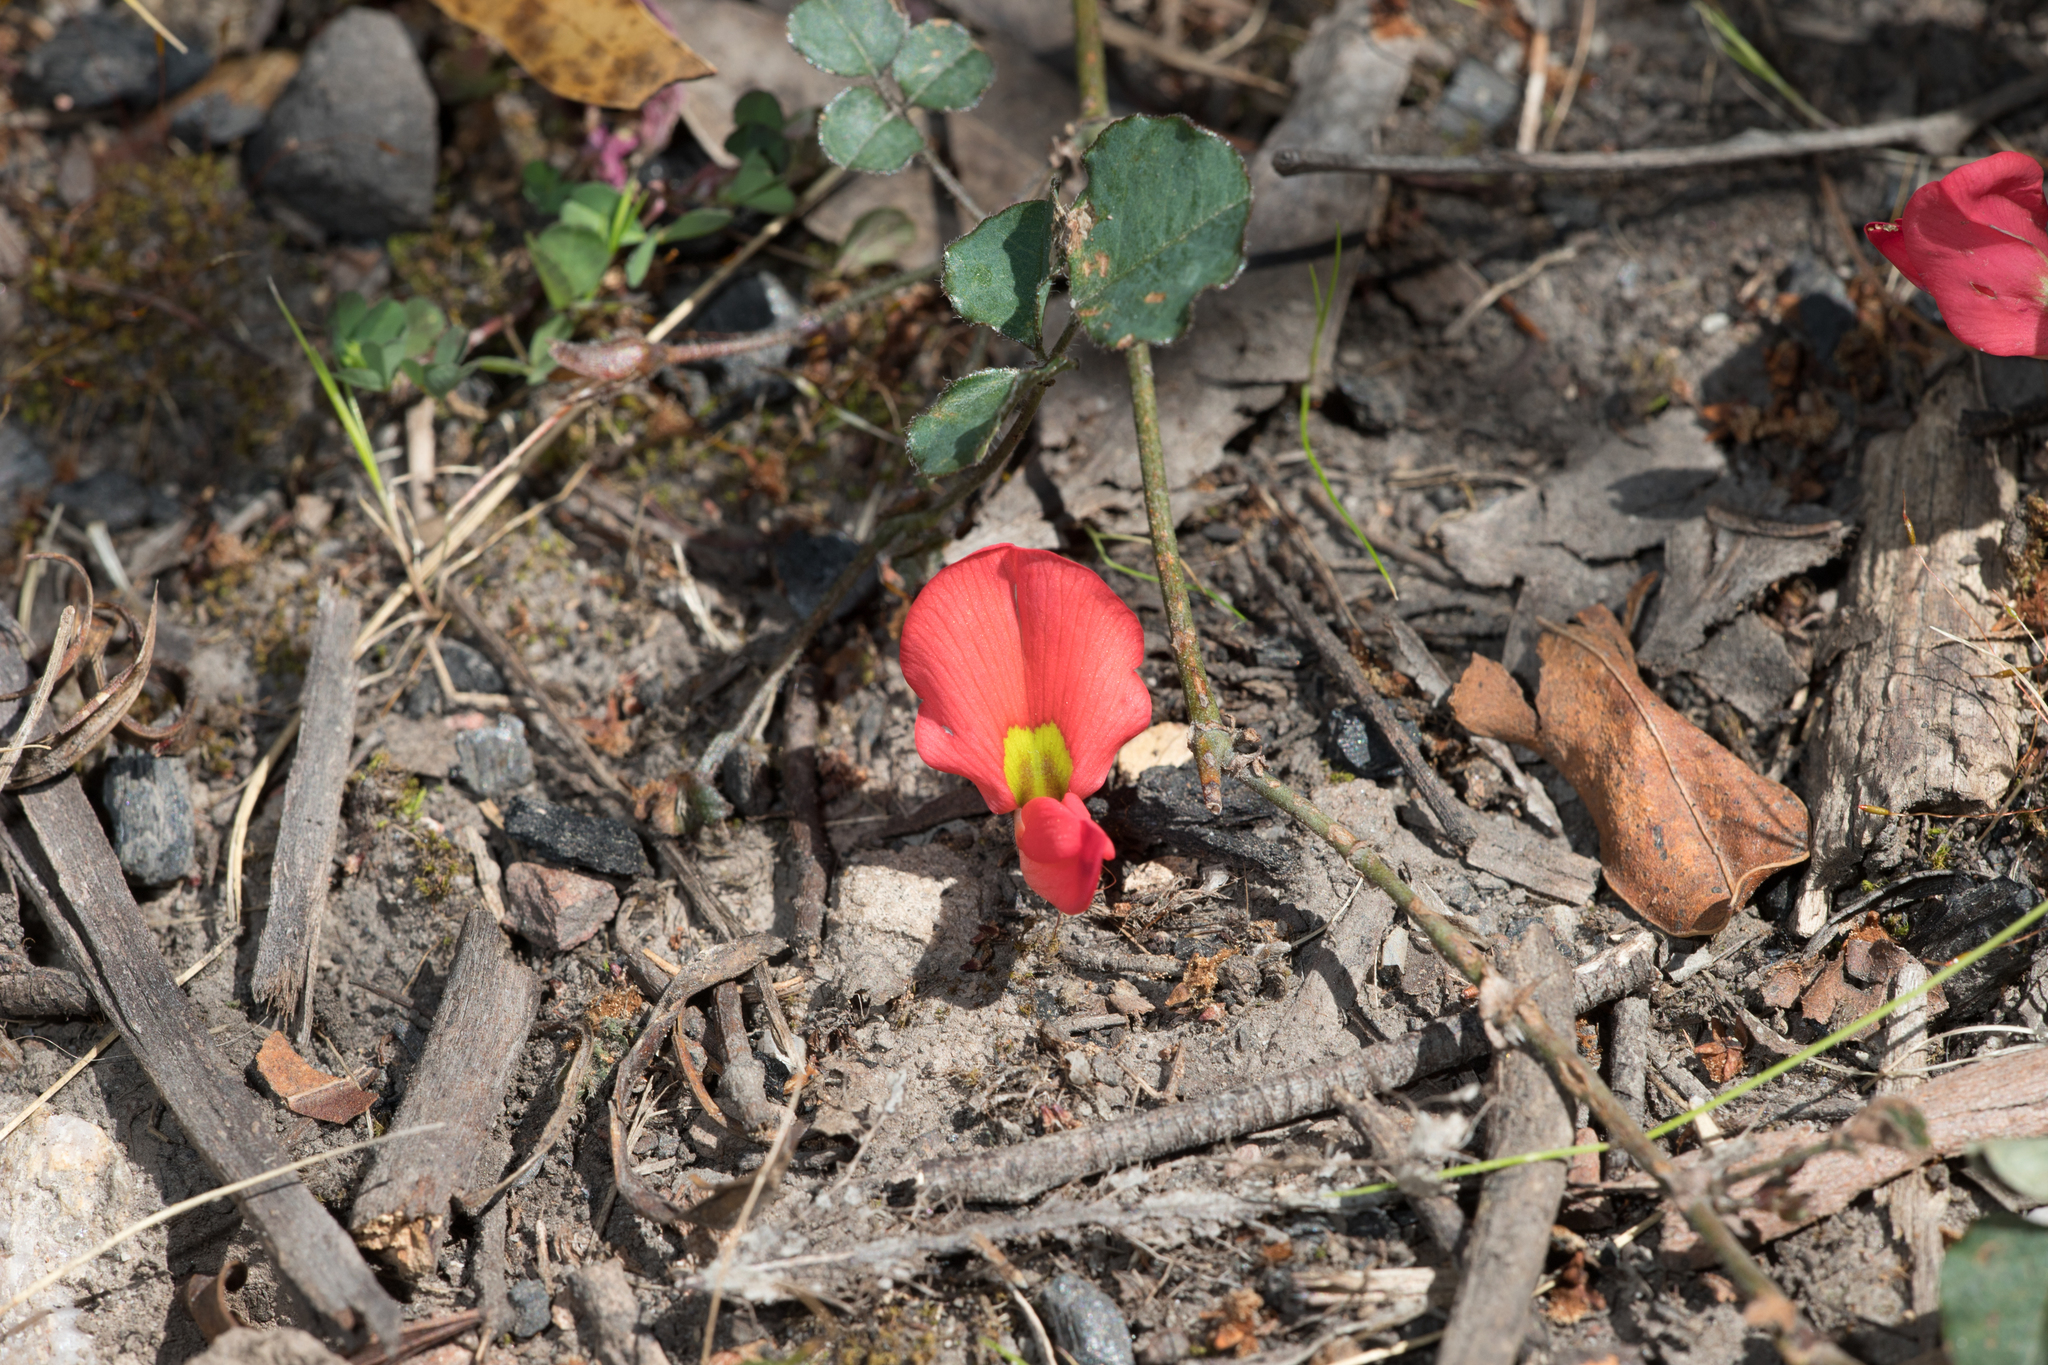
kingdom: Plantae
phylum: Tracheophyta
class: Magnoliopsida
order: Fabales
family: Fabaceae
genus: Kennedia
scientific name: Kennedia prostrata
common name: Running-postman
